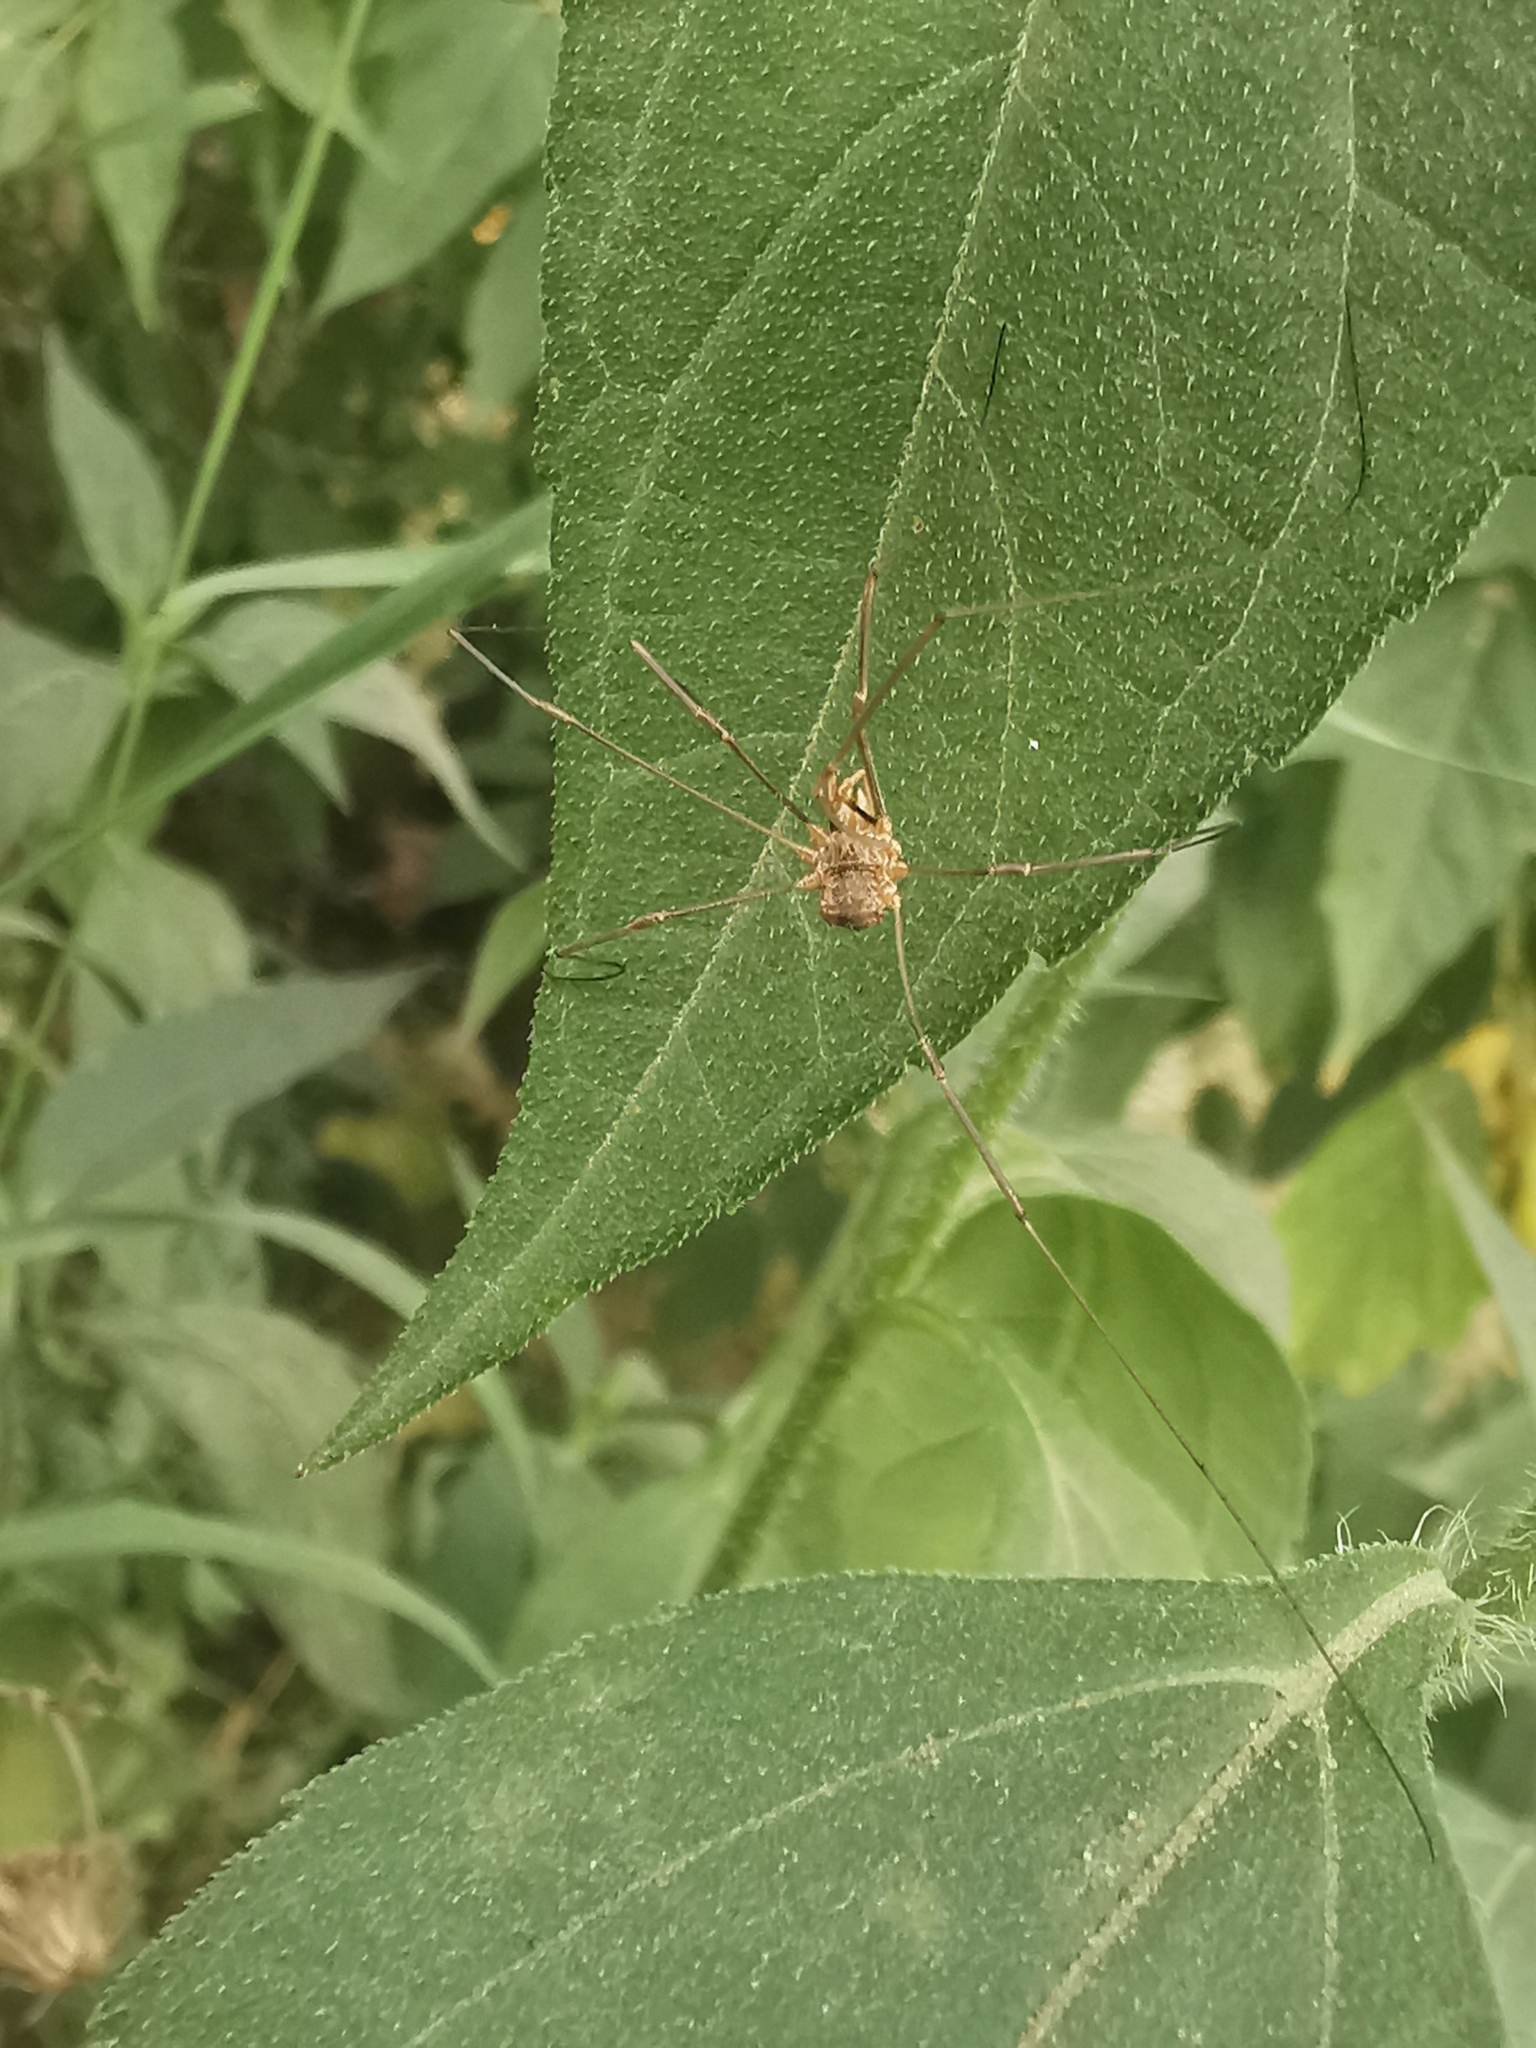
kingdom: Animalia
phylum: Arthropoda
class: Arachnida
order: Opiliones
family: Phalangiidae
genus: Phalangium
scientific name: Phalangium opilio
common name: Daddy longleg
